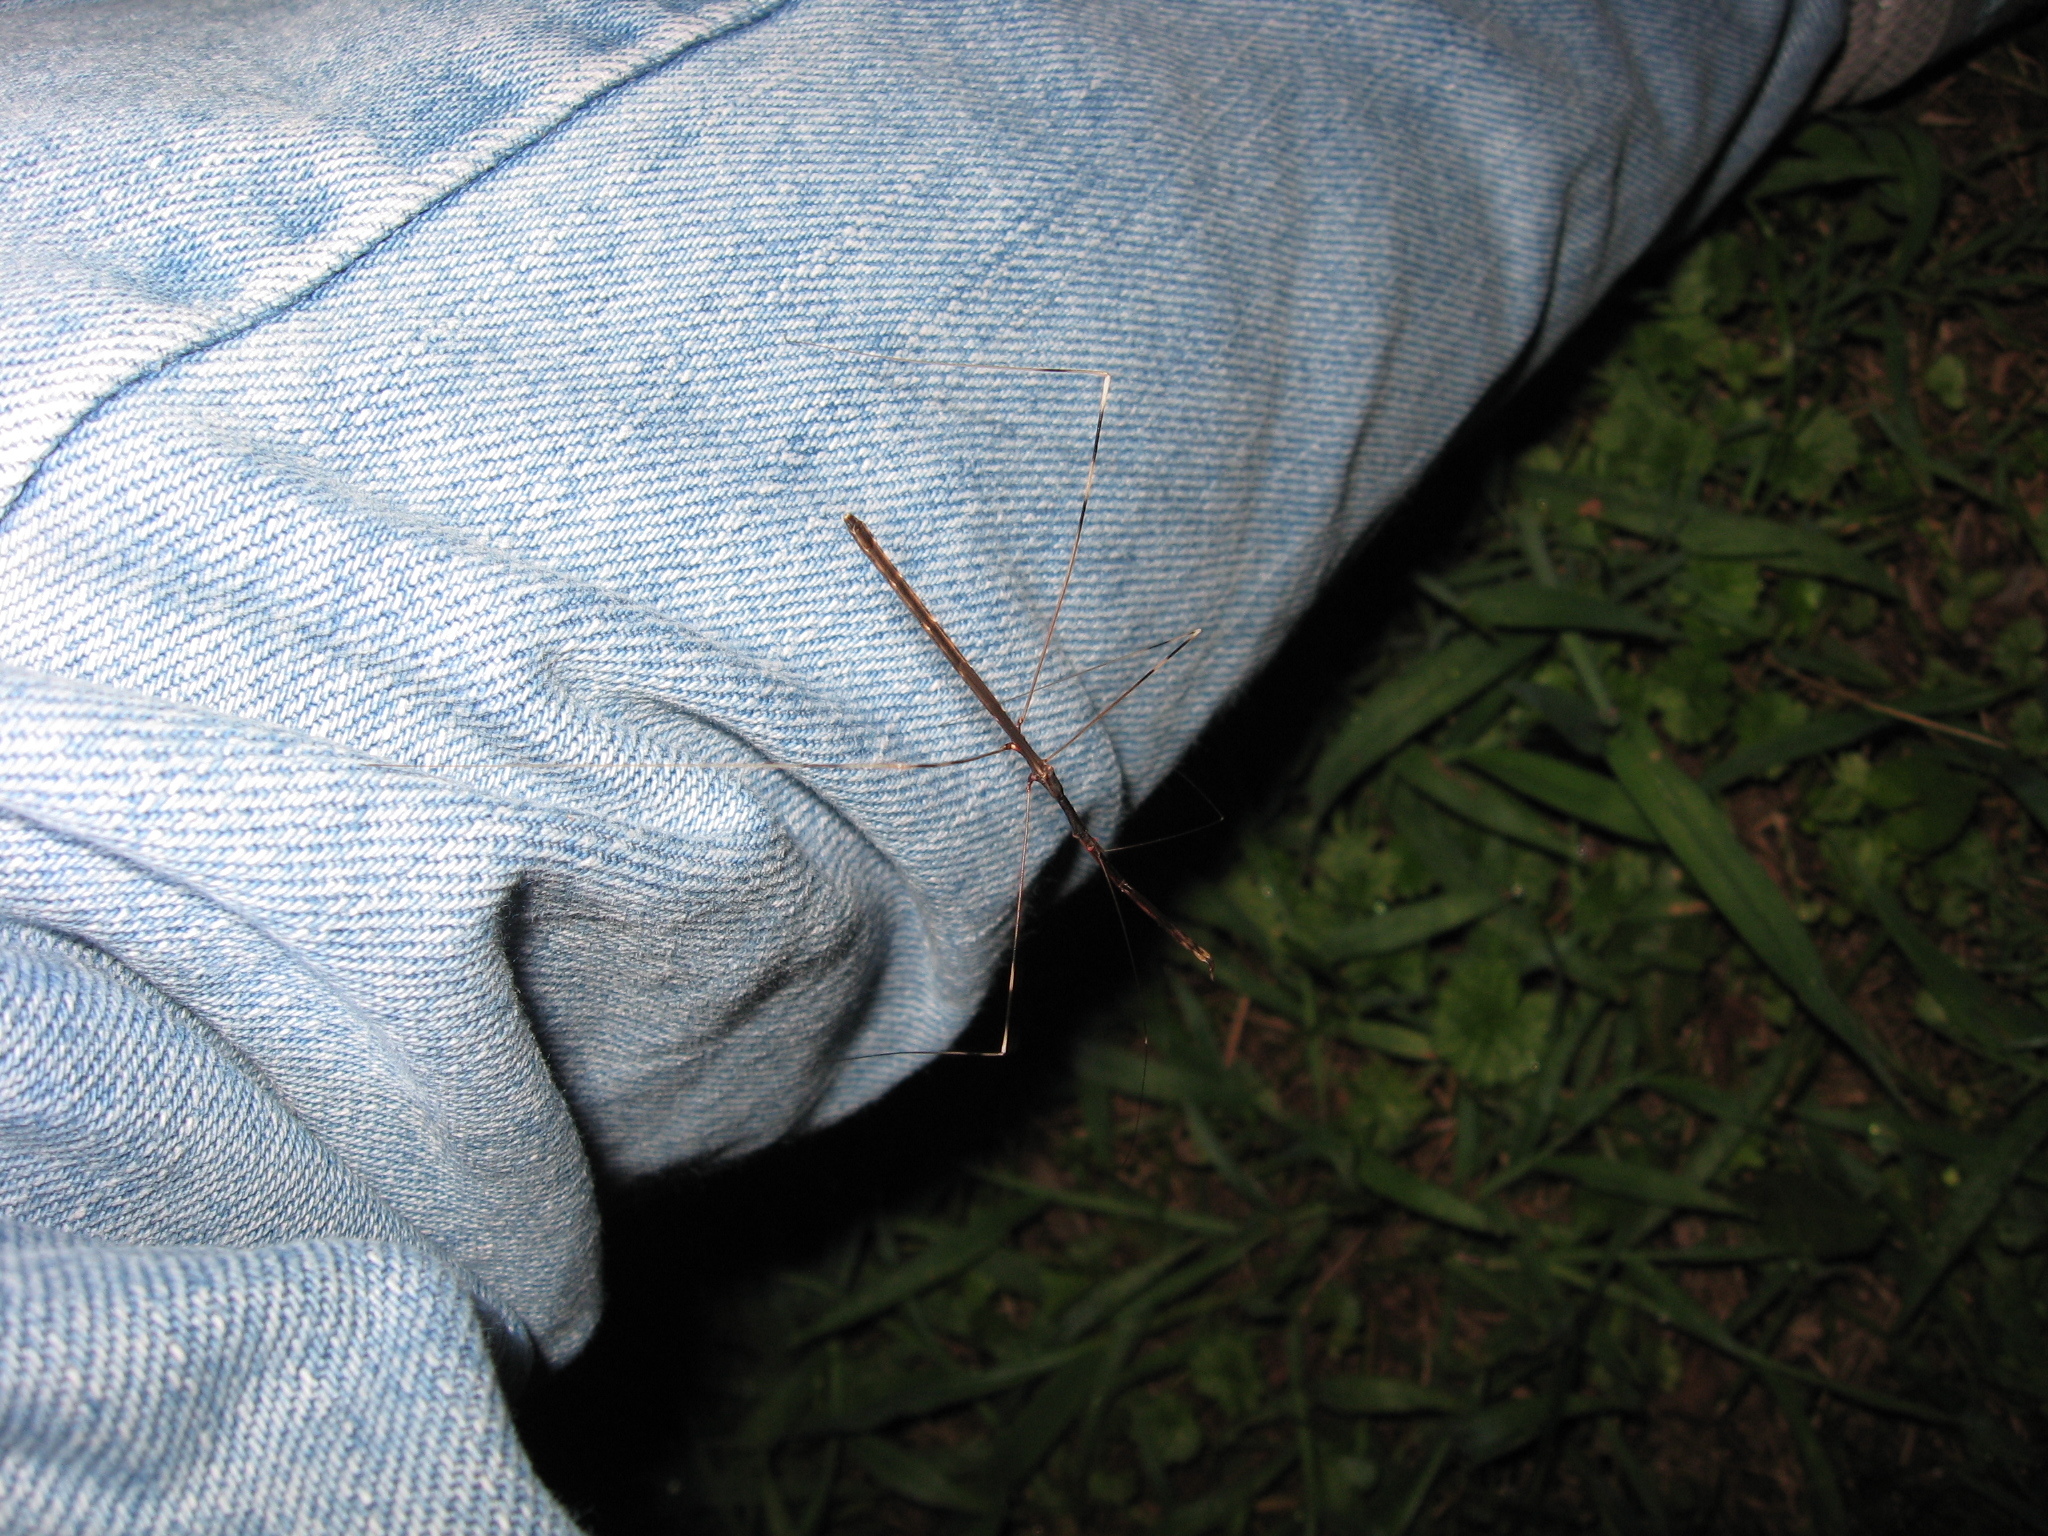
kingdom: Animalia
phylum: Arthropoda
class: Insecta
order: Hemiptera
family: Reduviidae
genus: Emesaya
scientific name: Emesaya brevipennis
